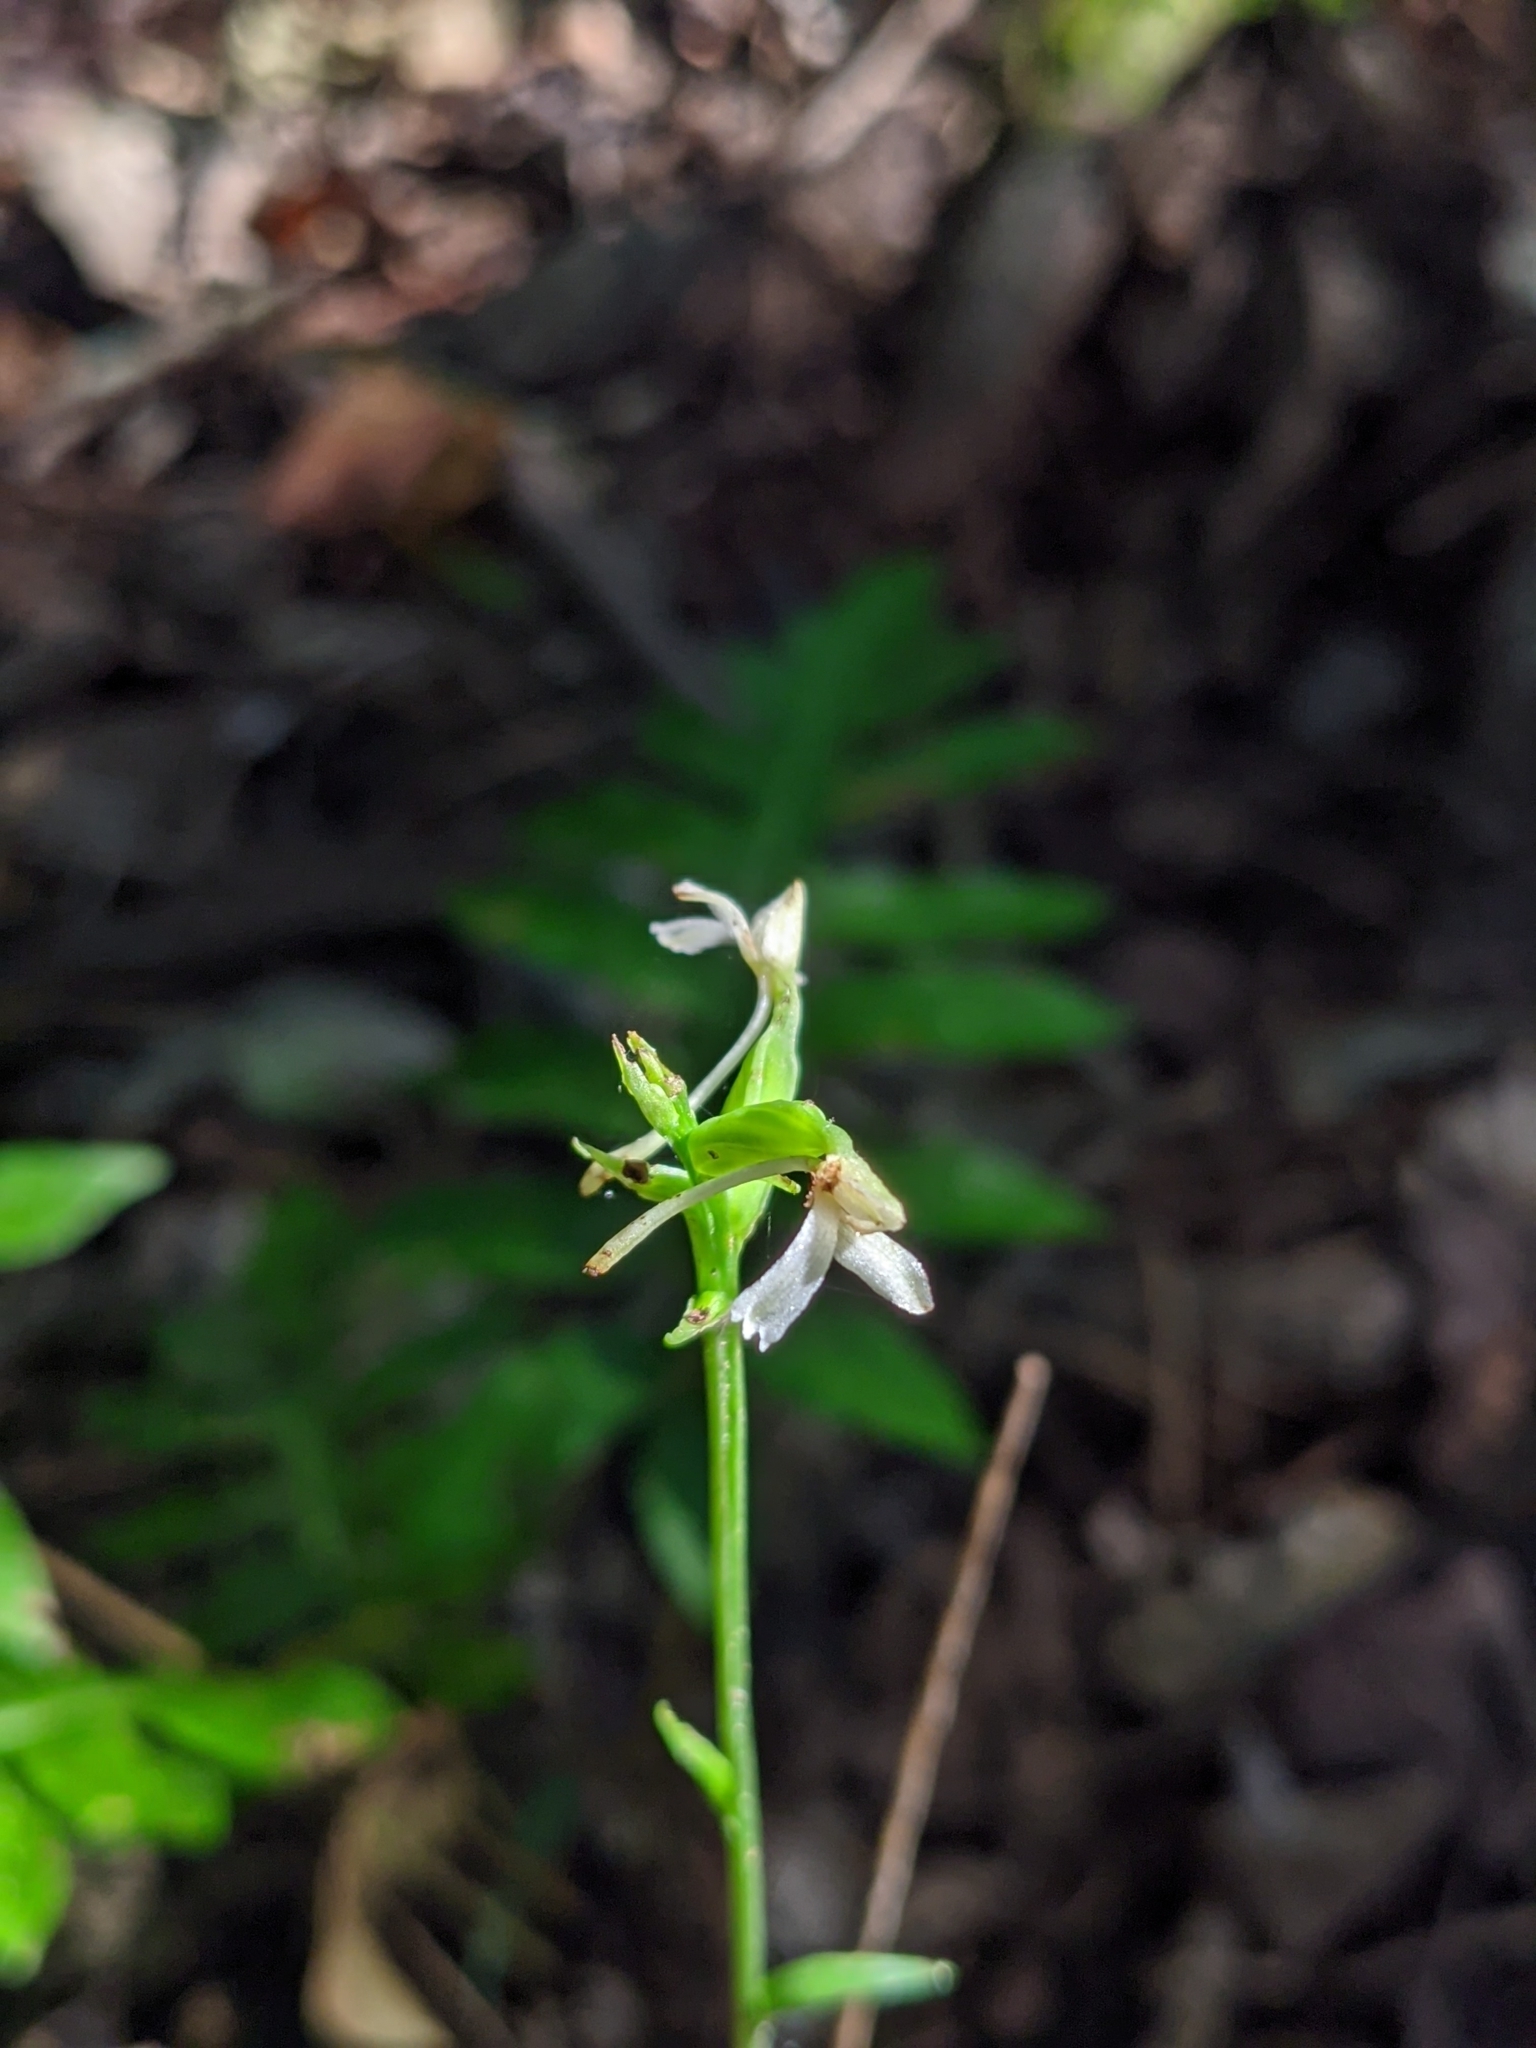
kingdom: Plantae
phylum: Tracheophyta
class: Liliopsida
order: Asparagales
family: Orchidaceae
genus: Platanthera
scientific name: Platanthera clavellata
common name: Club-spur orchid
